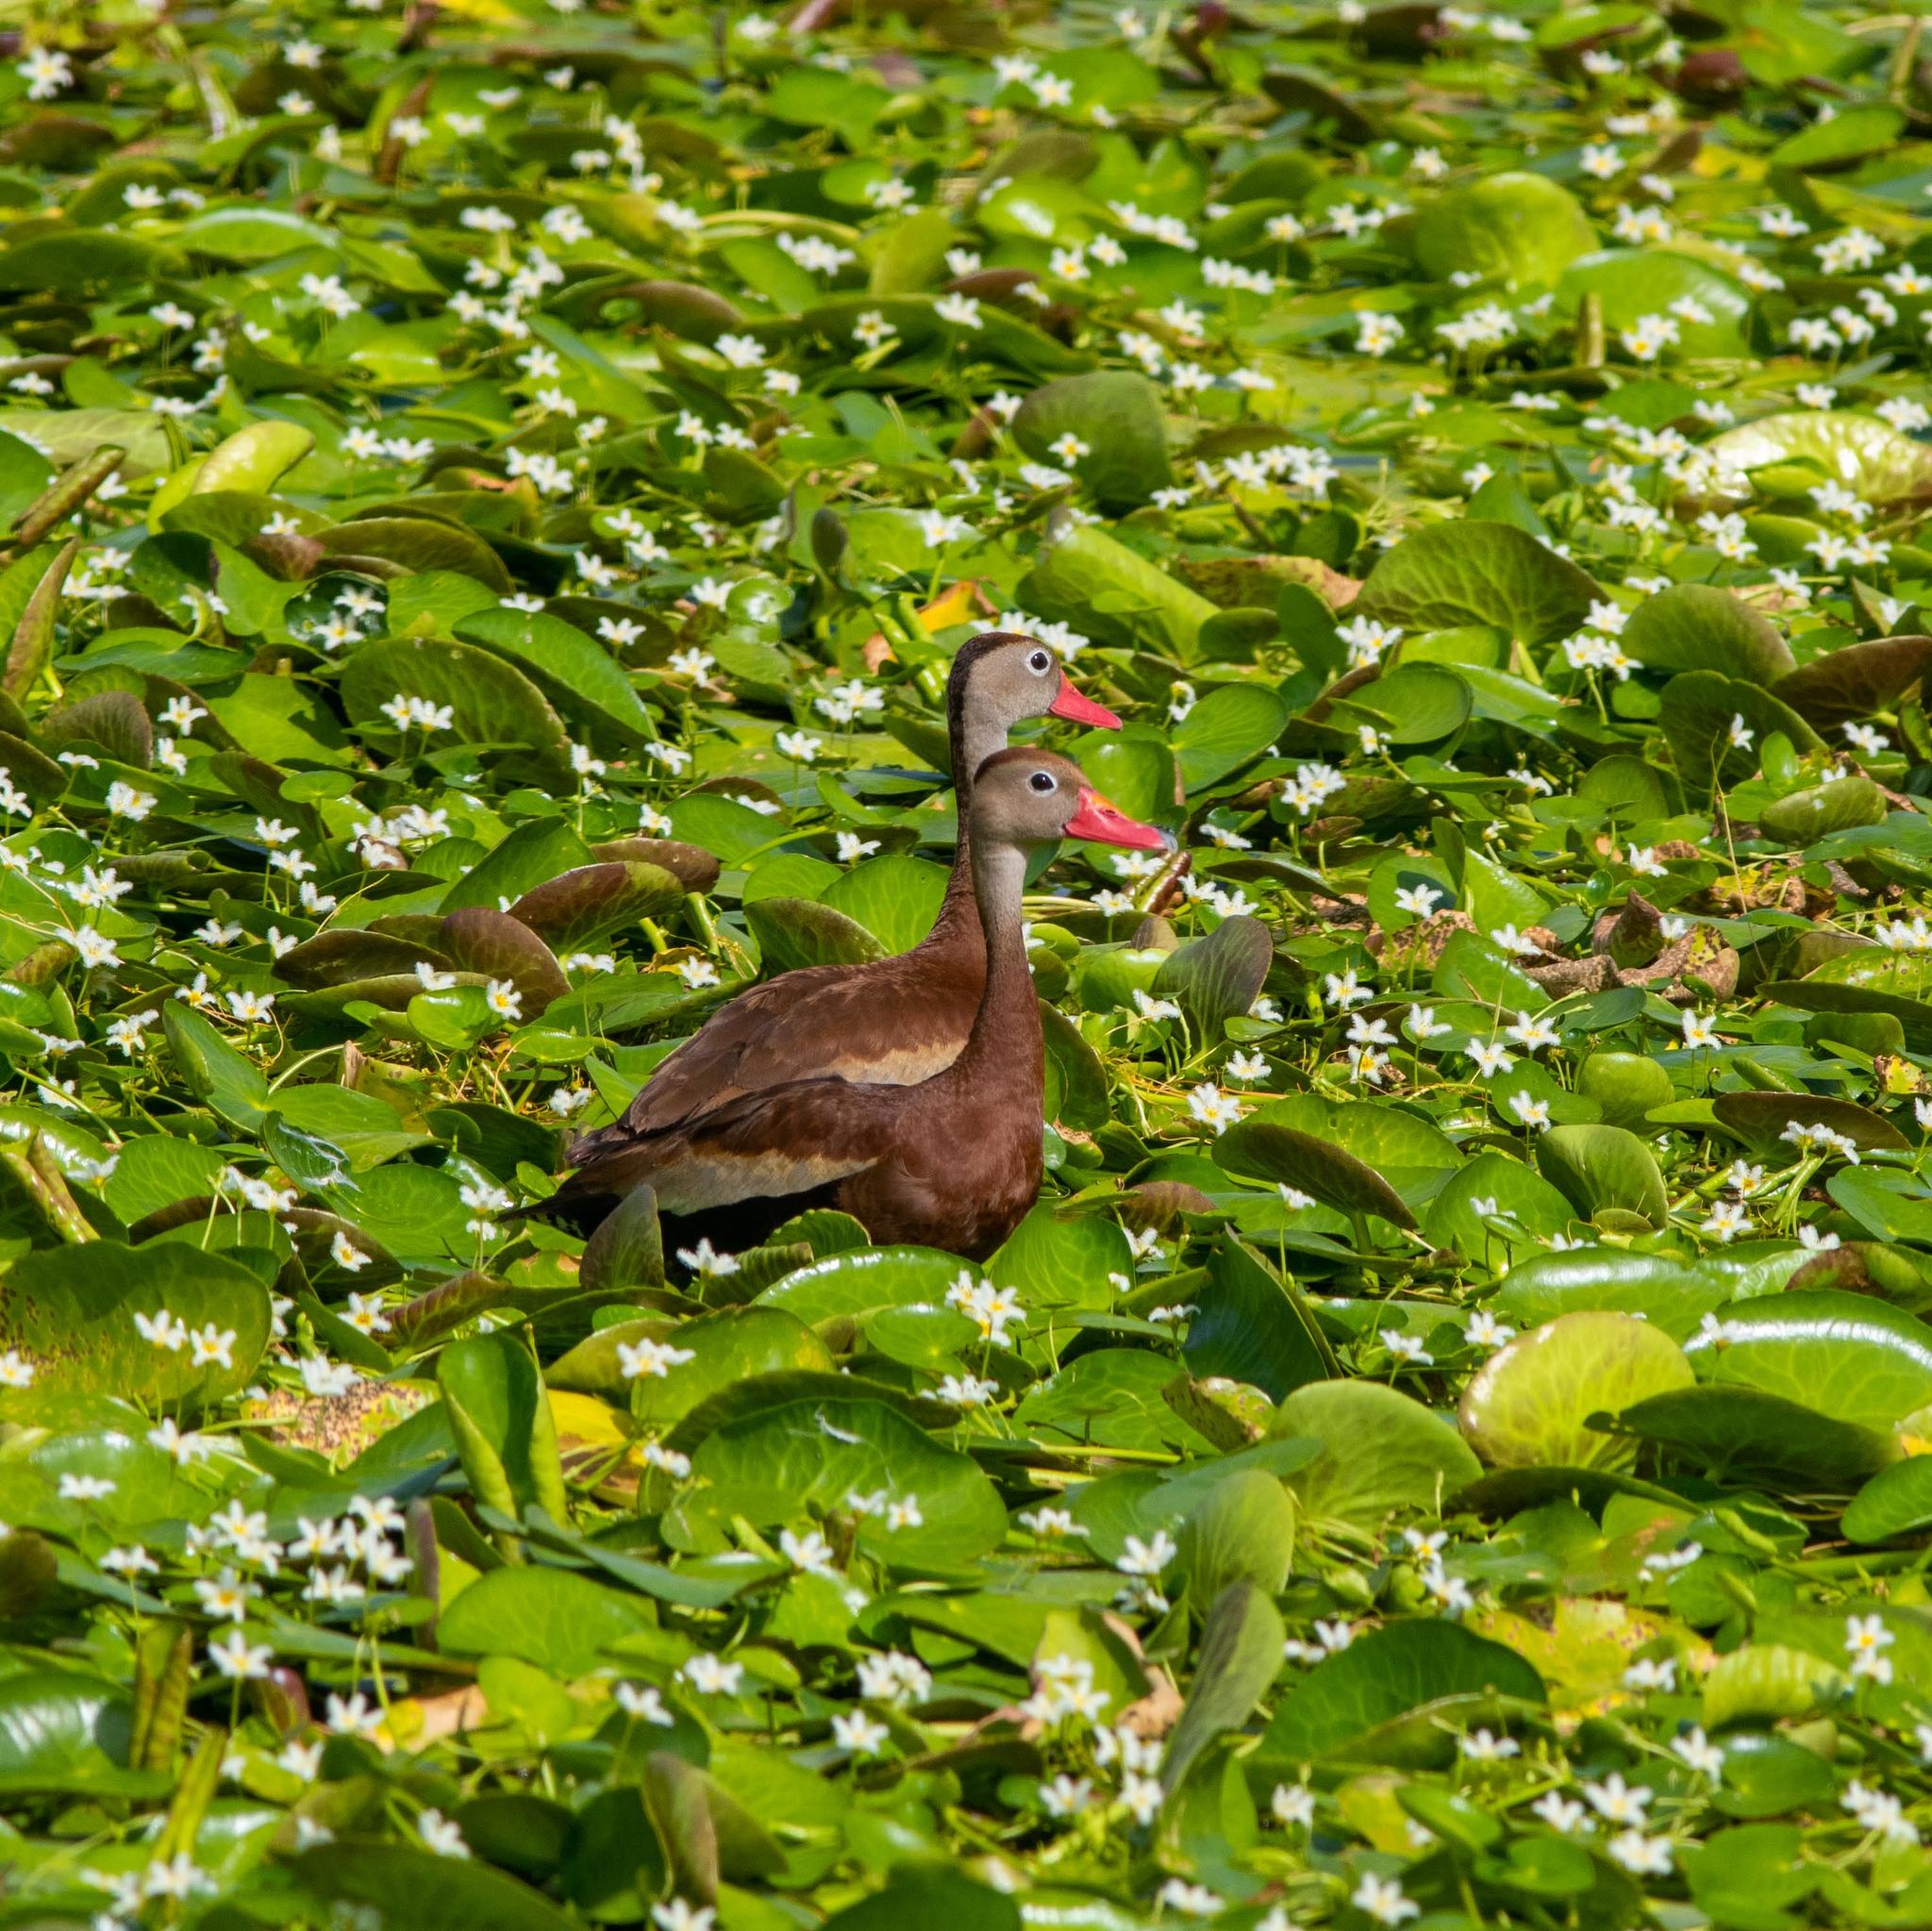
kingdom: Animalia
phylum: Chordata
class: Aves
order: Anseriformes
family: Anatidae
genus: Dendrocygna
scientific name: Dendrocygna autumnalis
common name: Black-bellied whistling duck
